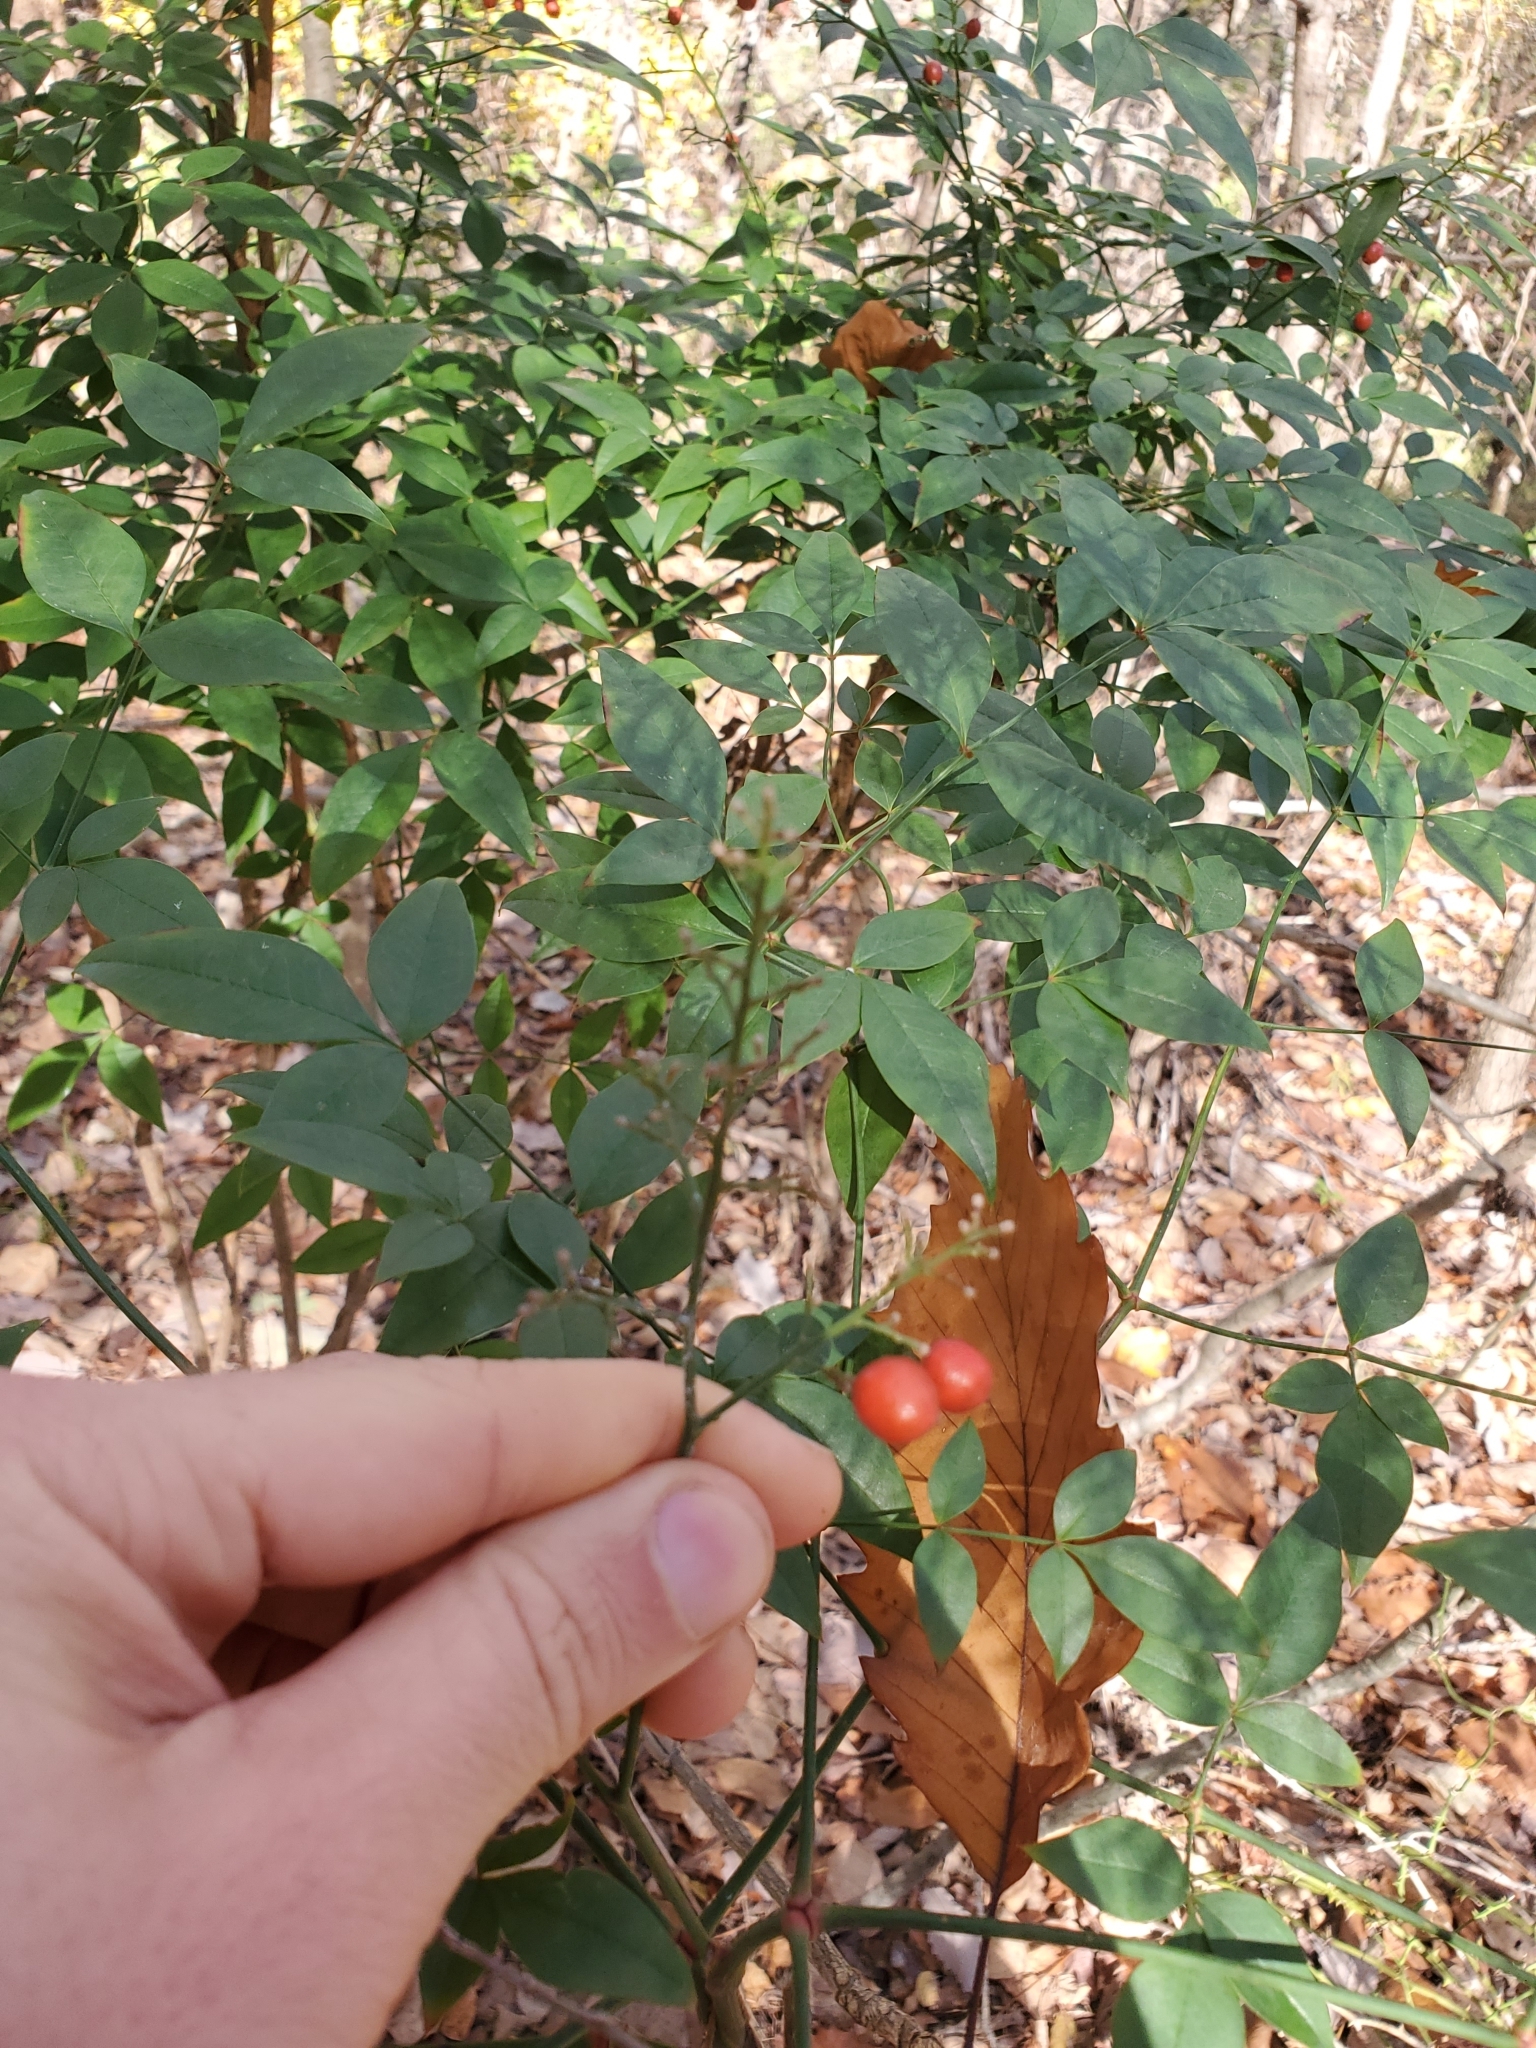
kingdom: Plantae
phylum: Tracheophyta
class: Magnoliopsida
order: Ranunculales
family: Berberidaceae
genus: Nandina
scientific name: Nandina domestica
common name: Sacred bamboo
